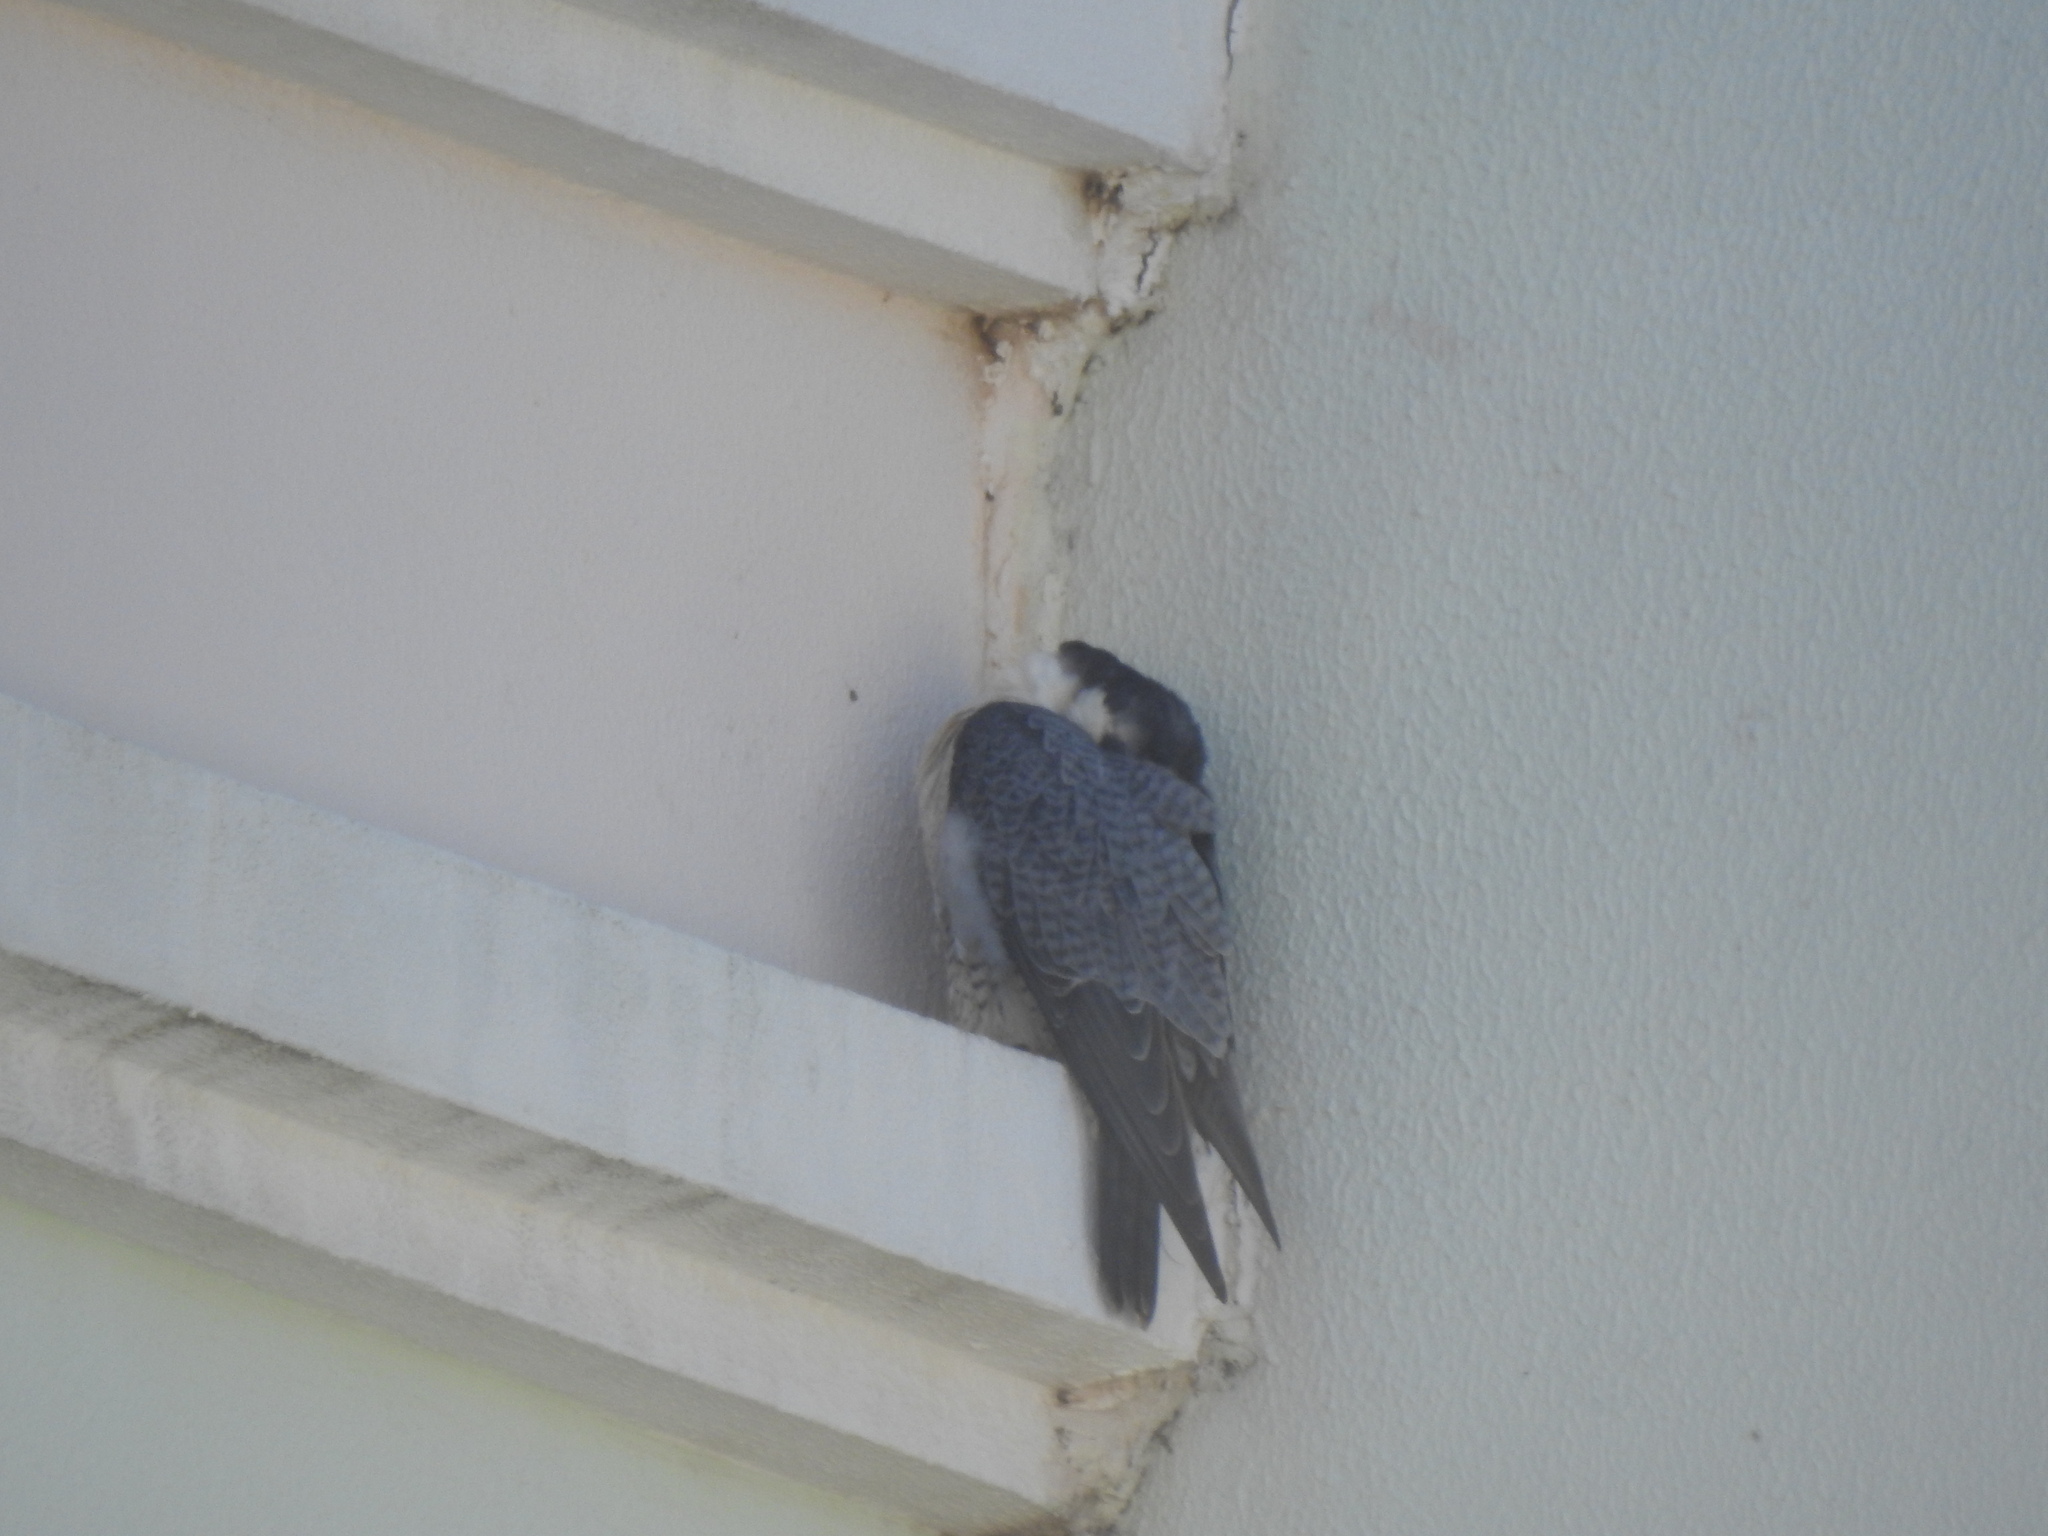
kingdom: Animalia
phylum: Chordata
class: Aves
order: Falconiformes
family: Falconidae
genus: Falco
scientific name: Falco peregrinus
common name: Peregrine falcon
